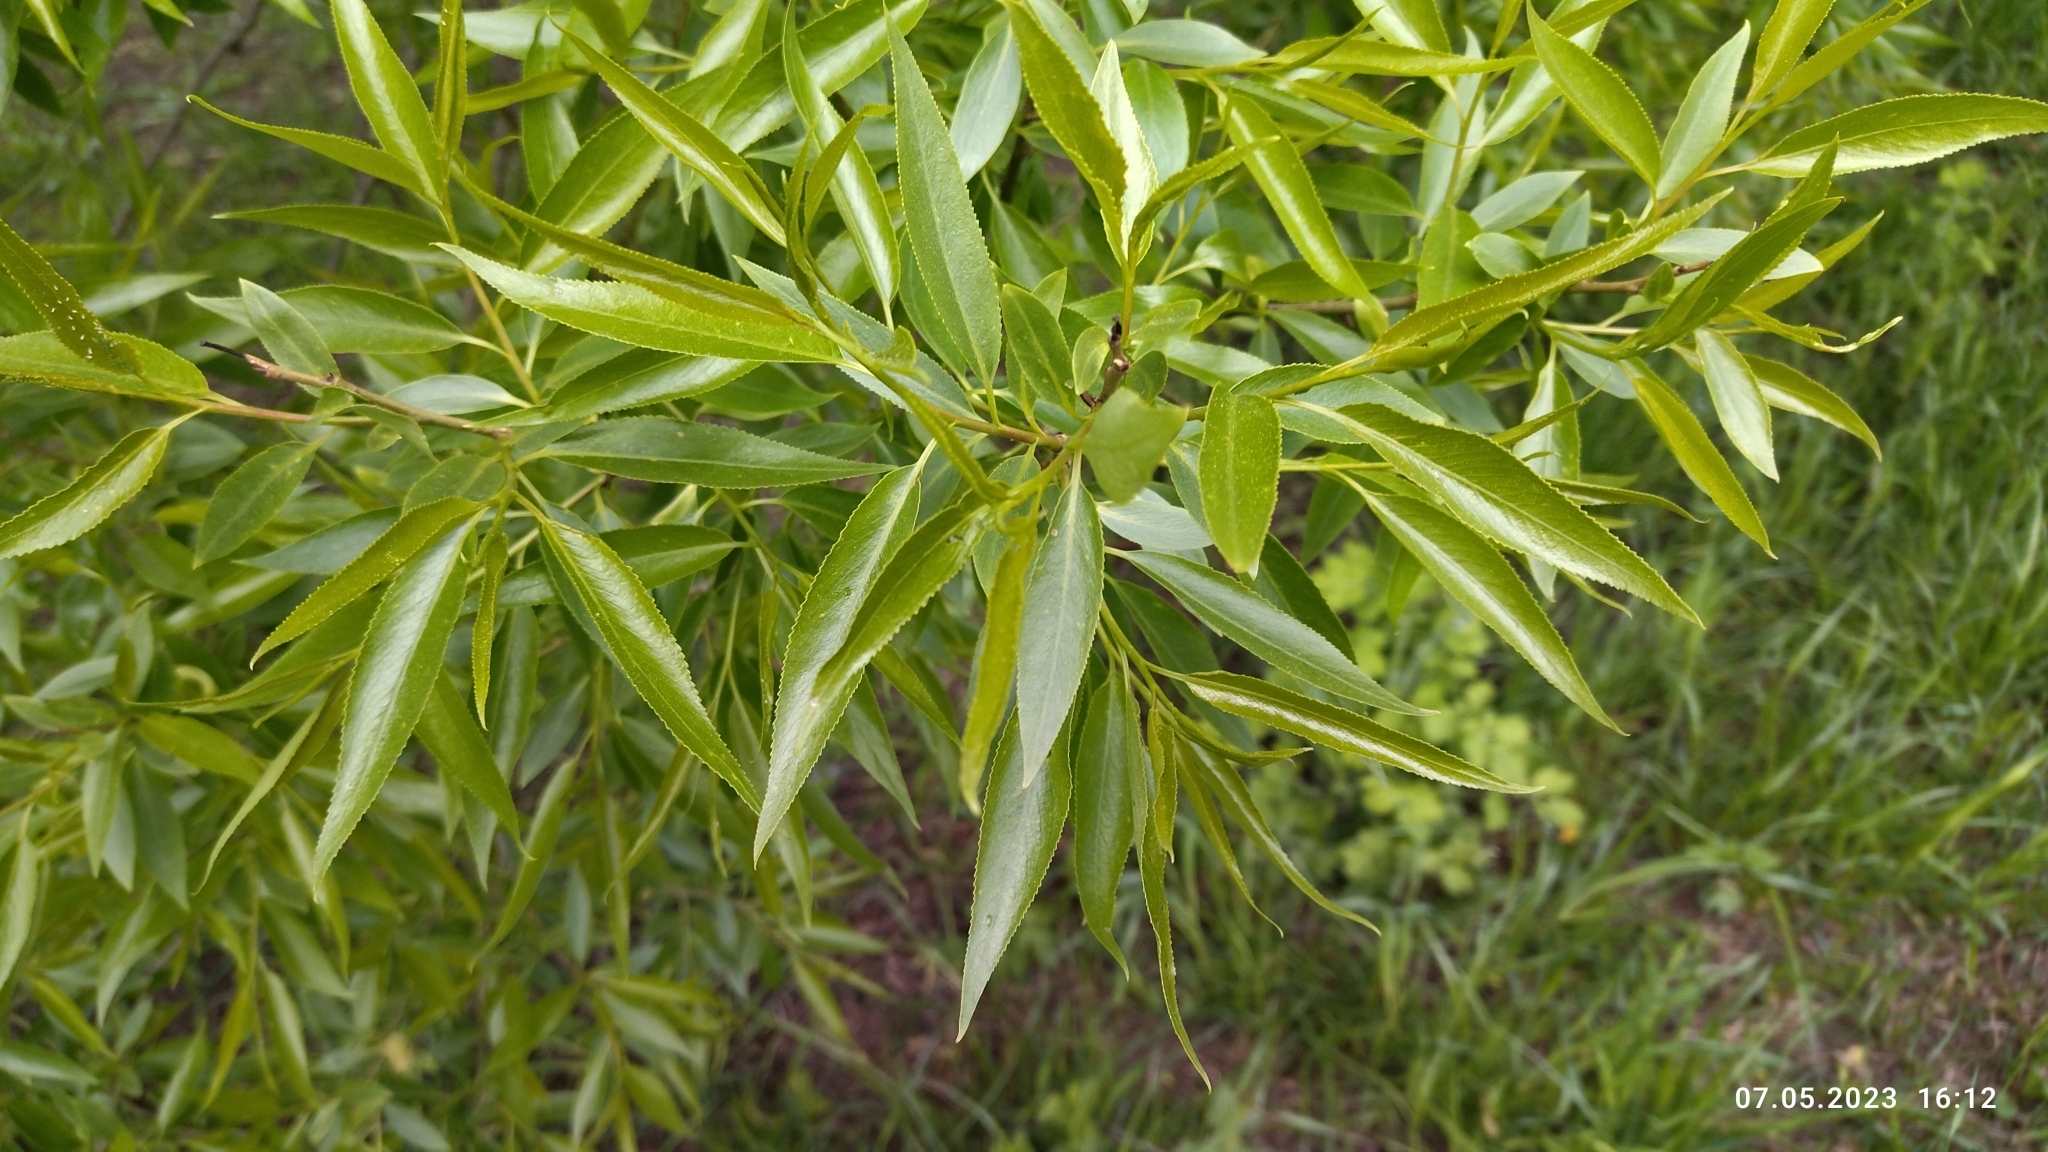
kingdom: Plantae
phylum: Tracheophyta
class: Magnoliopsida
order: Malpighiales
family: Salicaceae
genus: Salix
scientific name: Salix alba
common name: White willow
